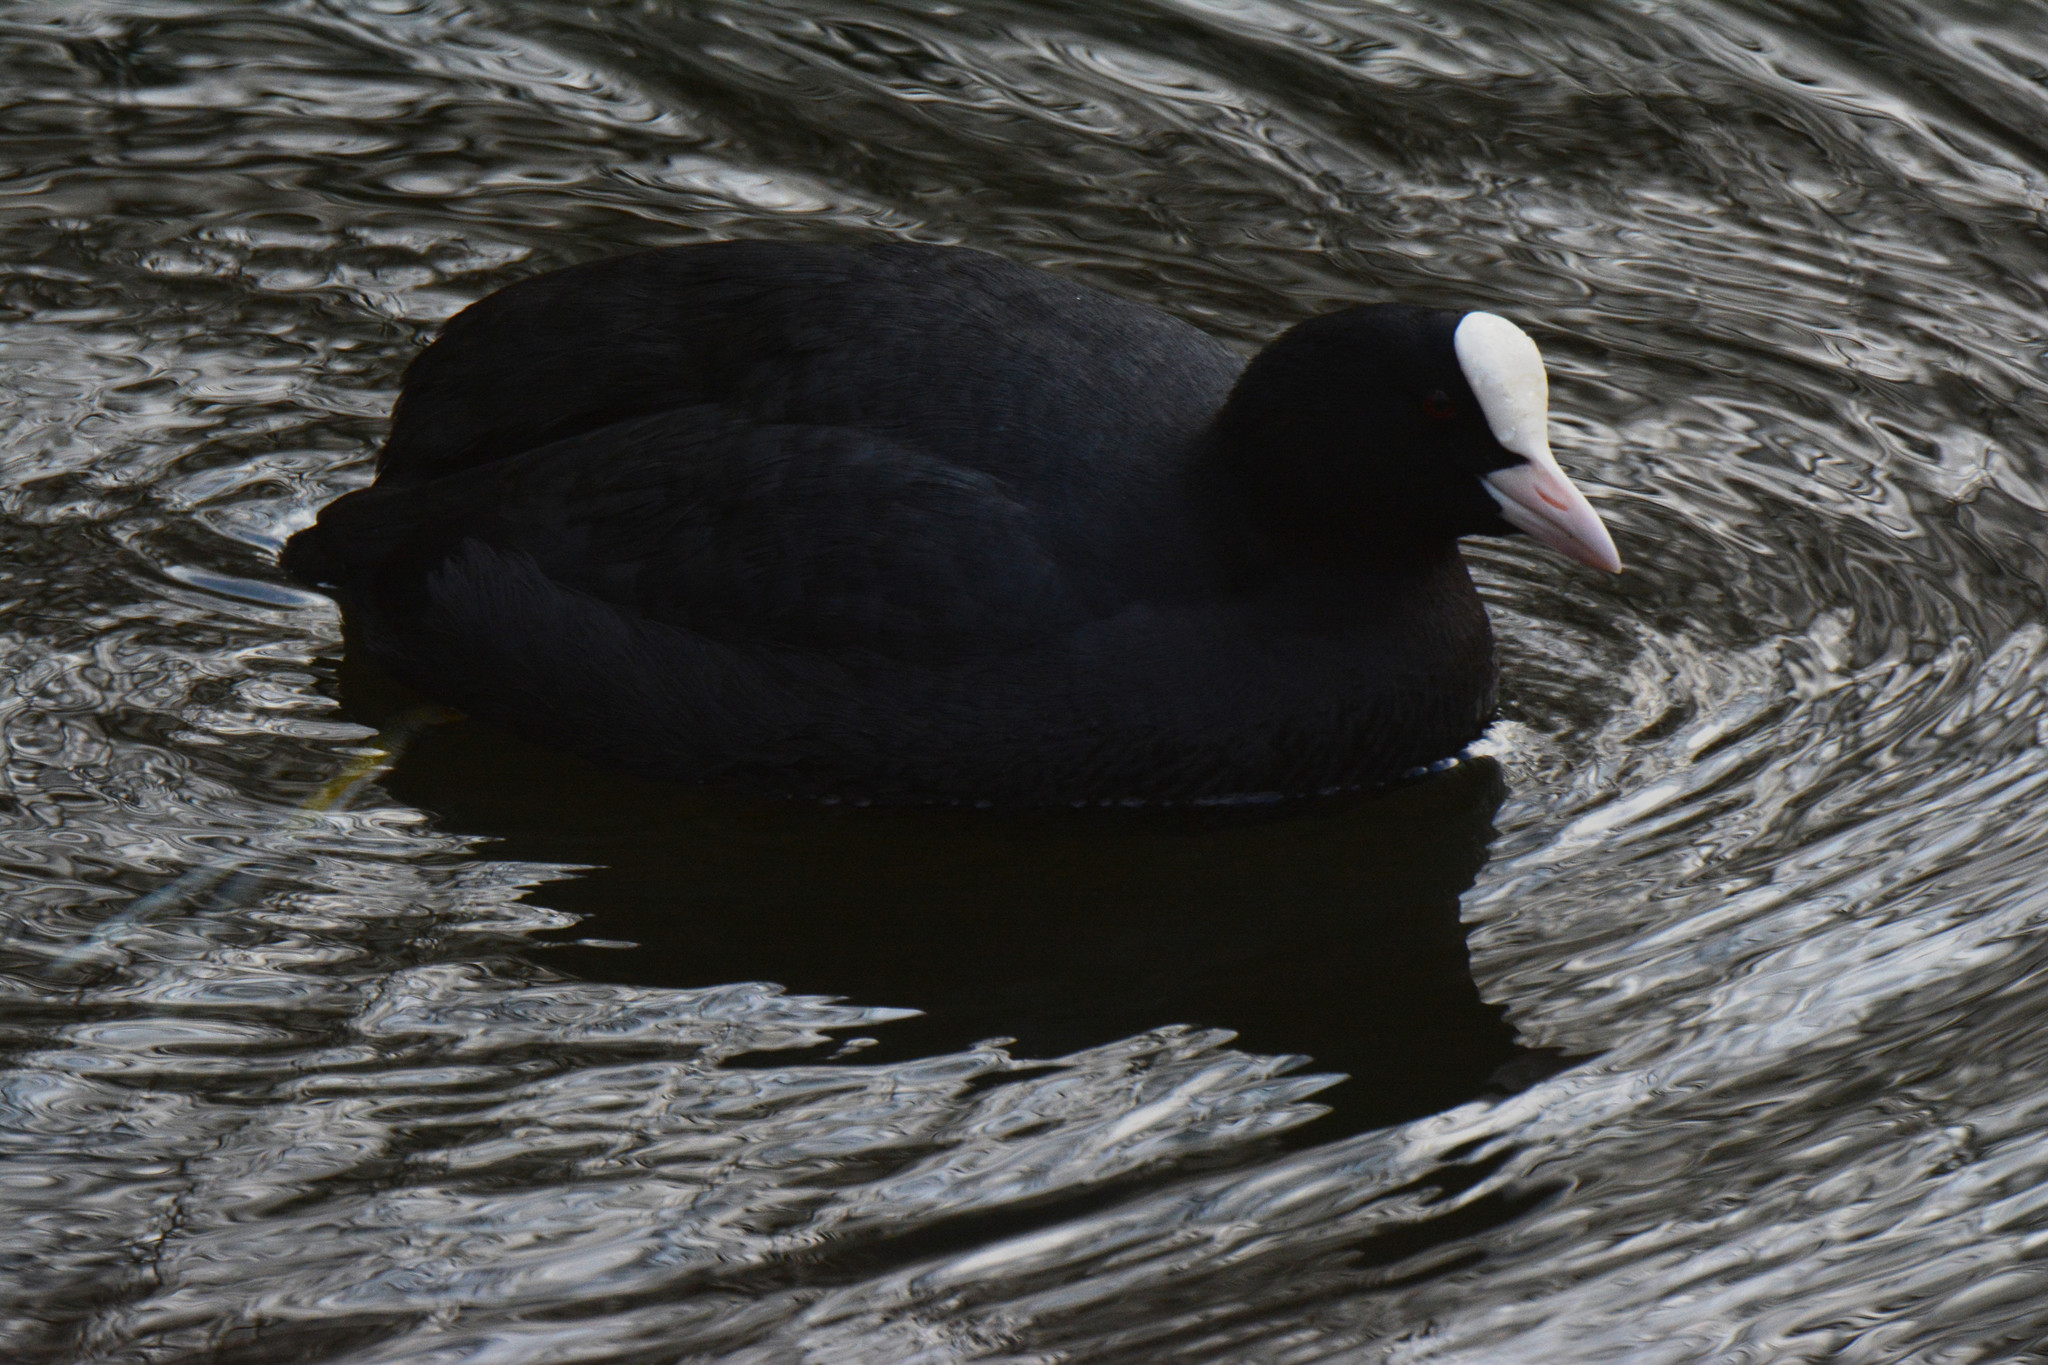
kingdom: Animalia
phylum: Chordata
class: Aves
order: Gruiformes
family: Rallidae
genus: Fulica
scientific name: Fulica atra
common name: Eurasian coot
